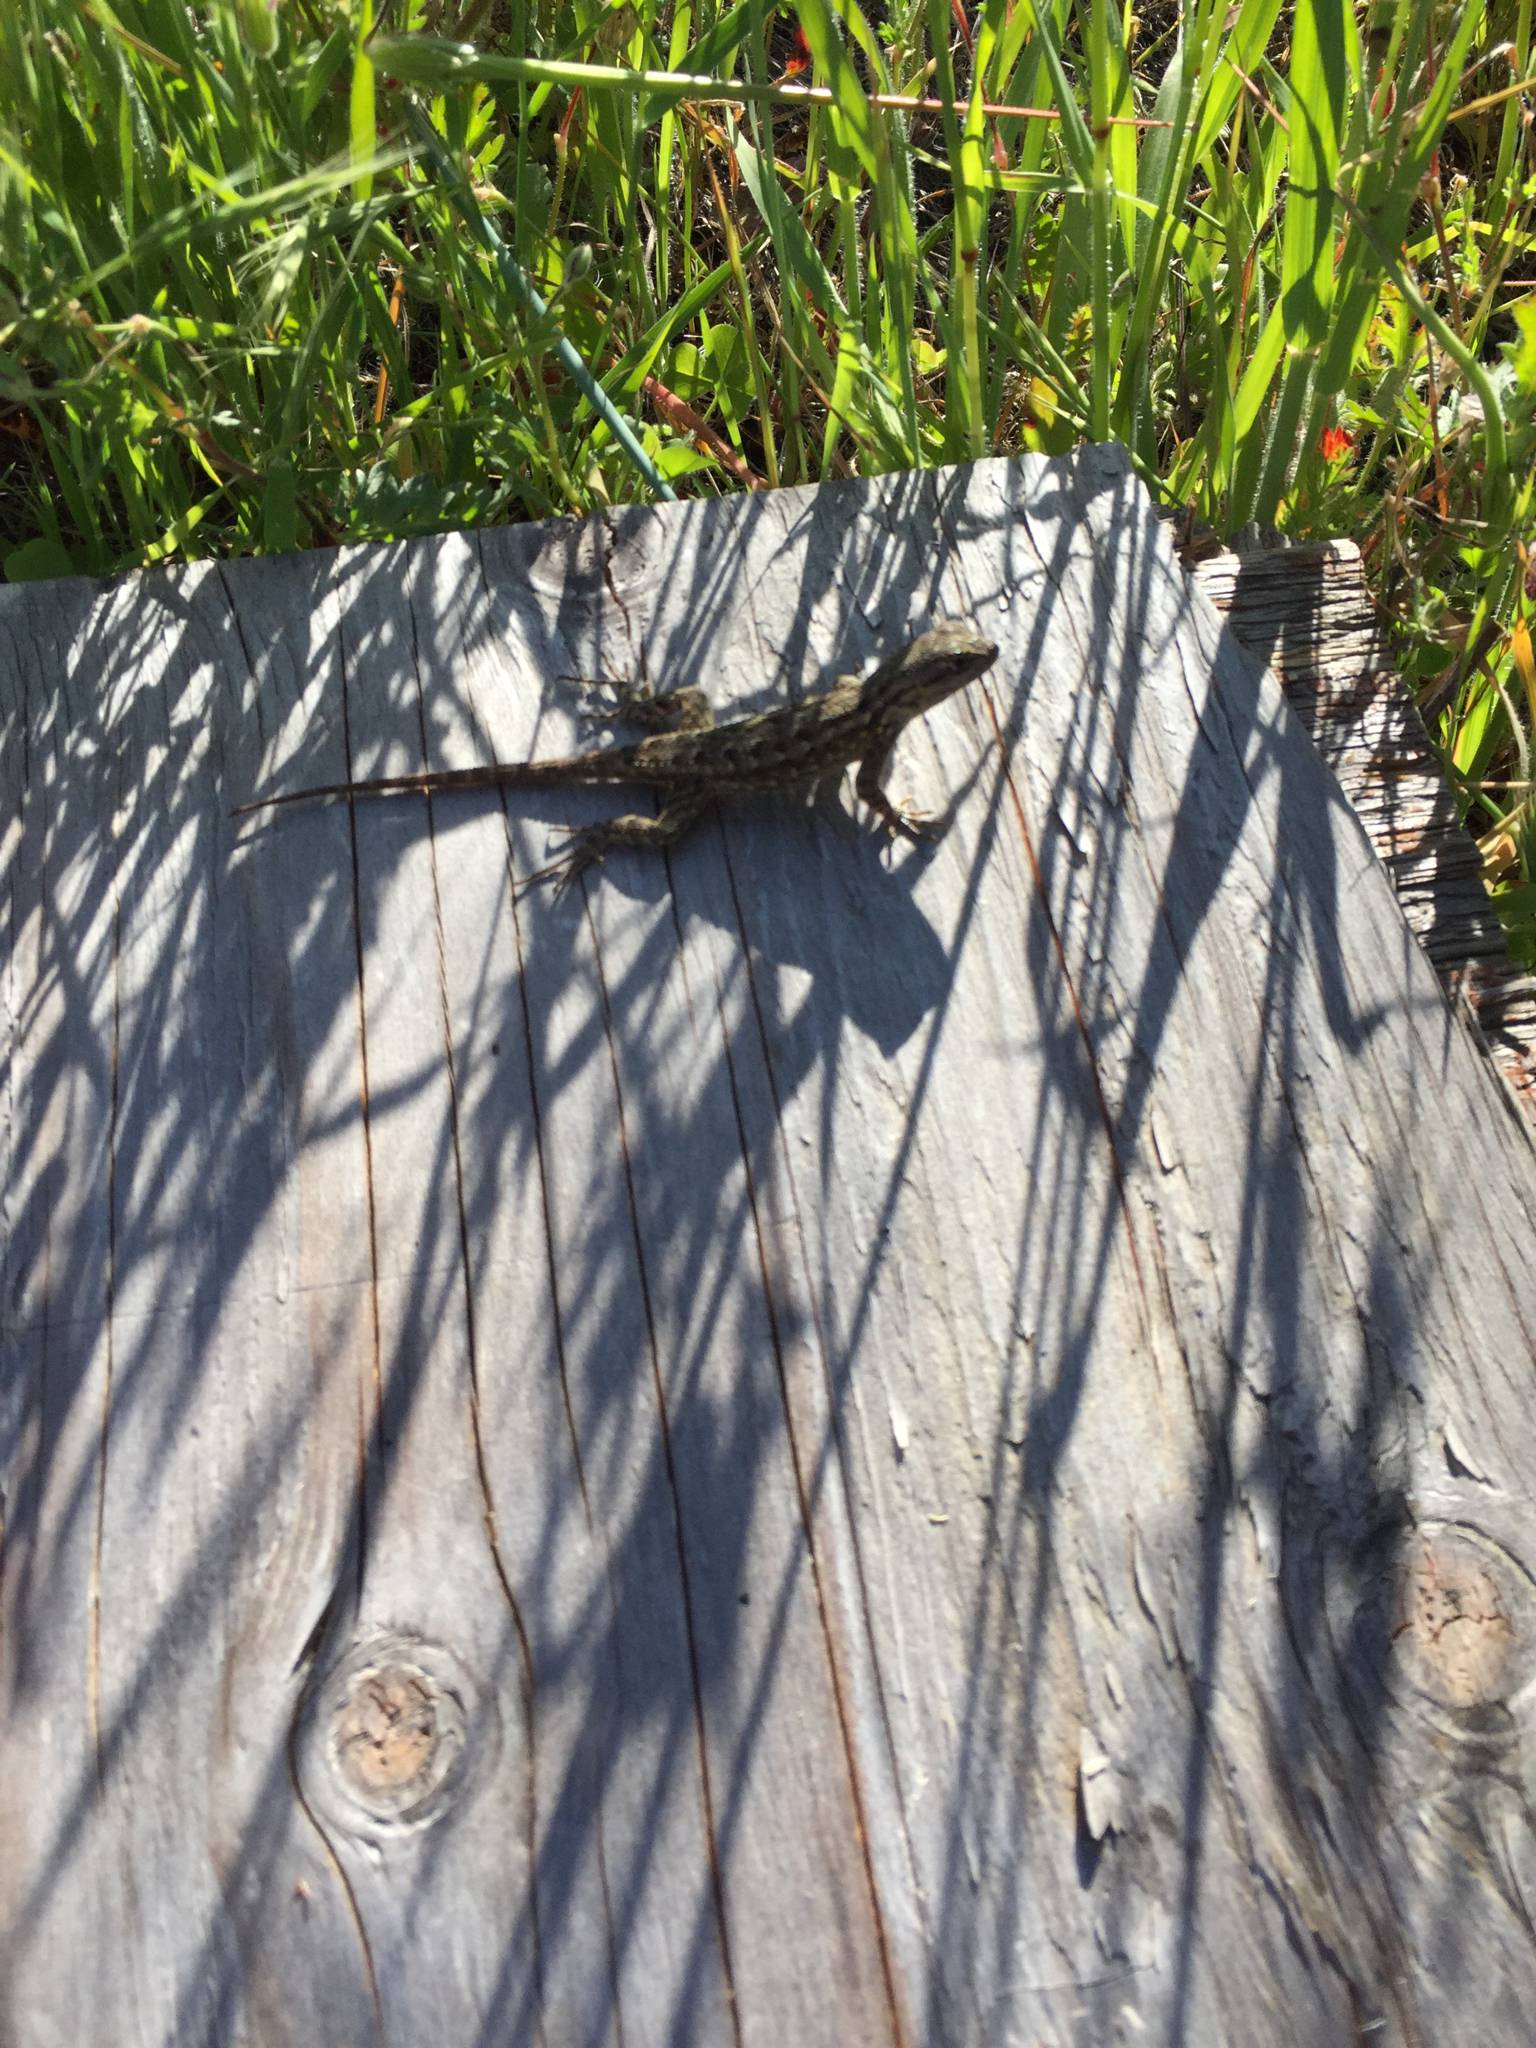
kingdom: Animalia
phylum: Chordata
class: Squamata
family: Phrynosomatidae
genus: Sceloporus
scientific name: Sceloporus occidentalis
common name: Western fence lizard
